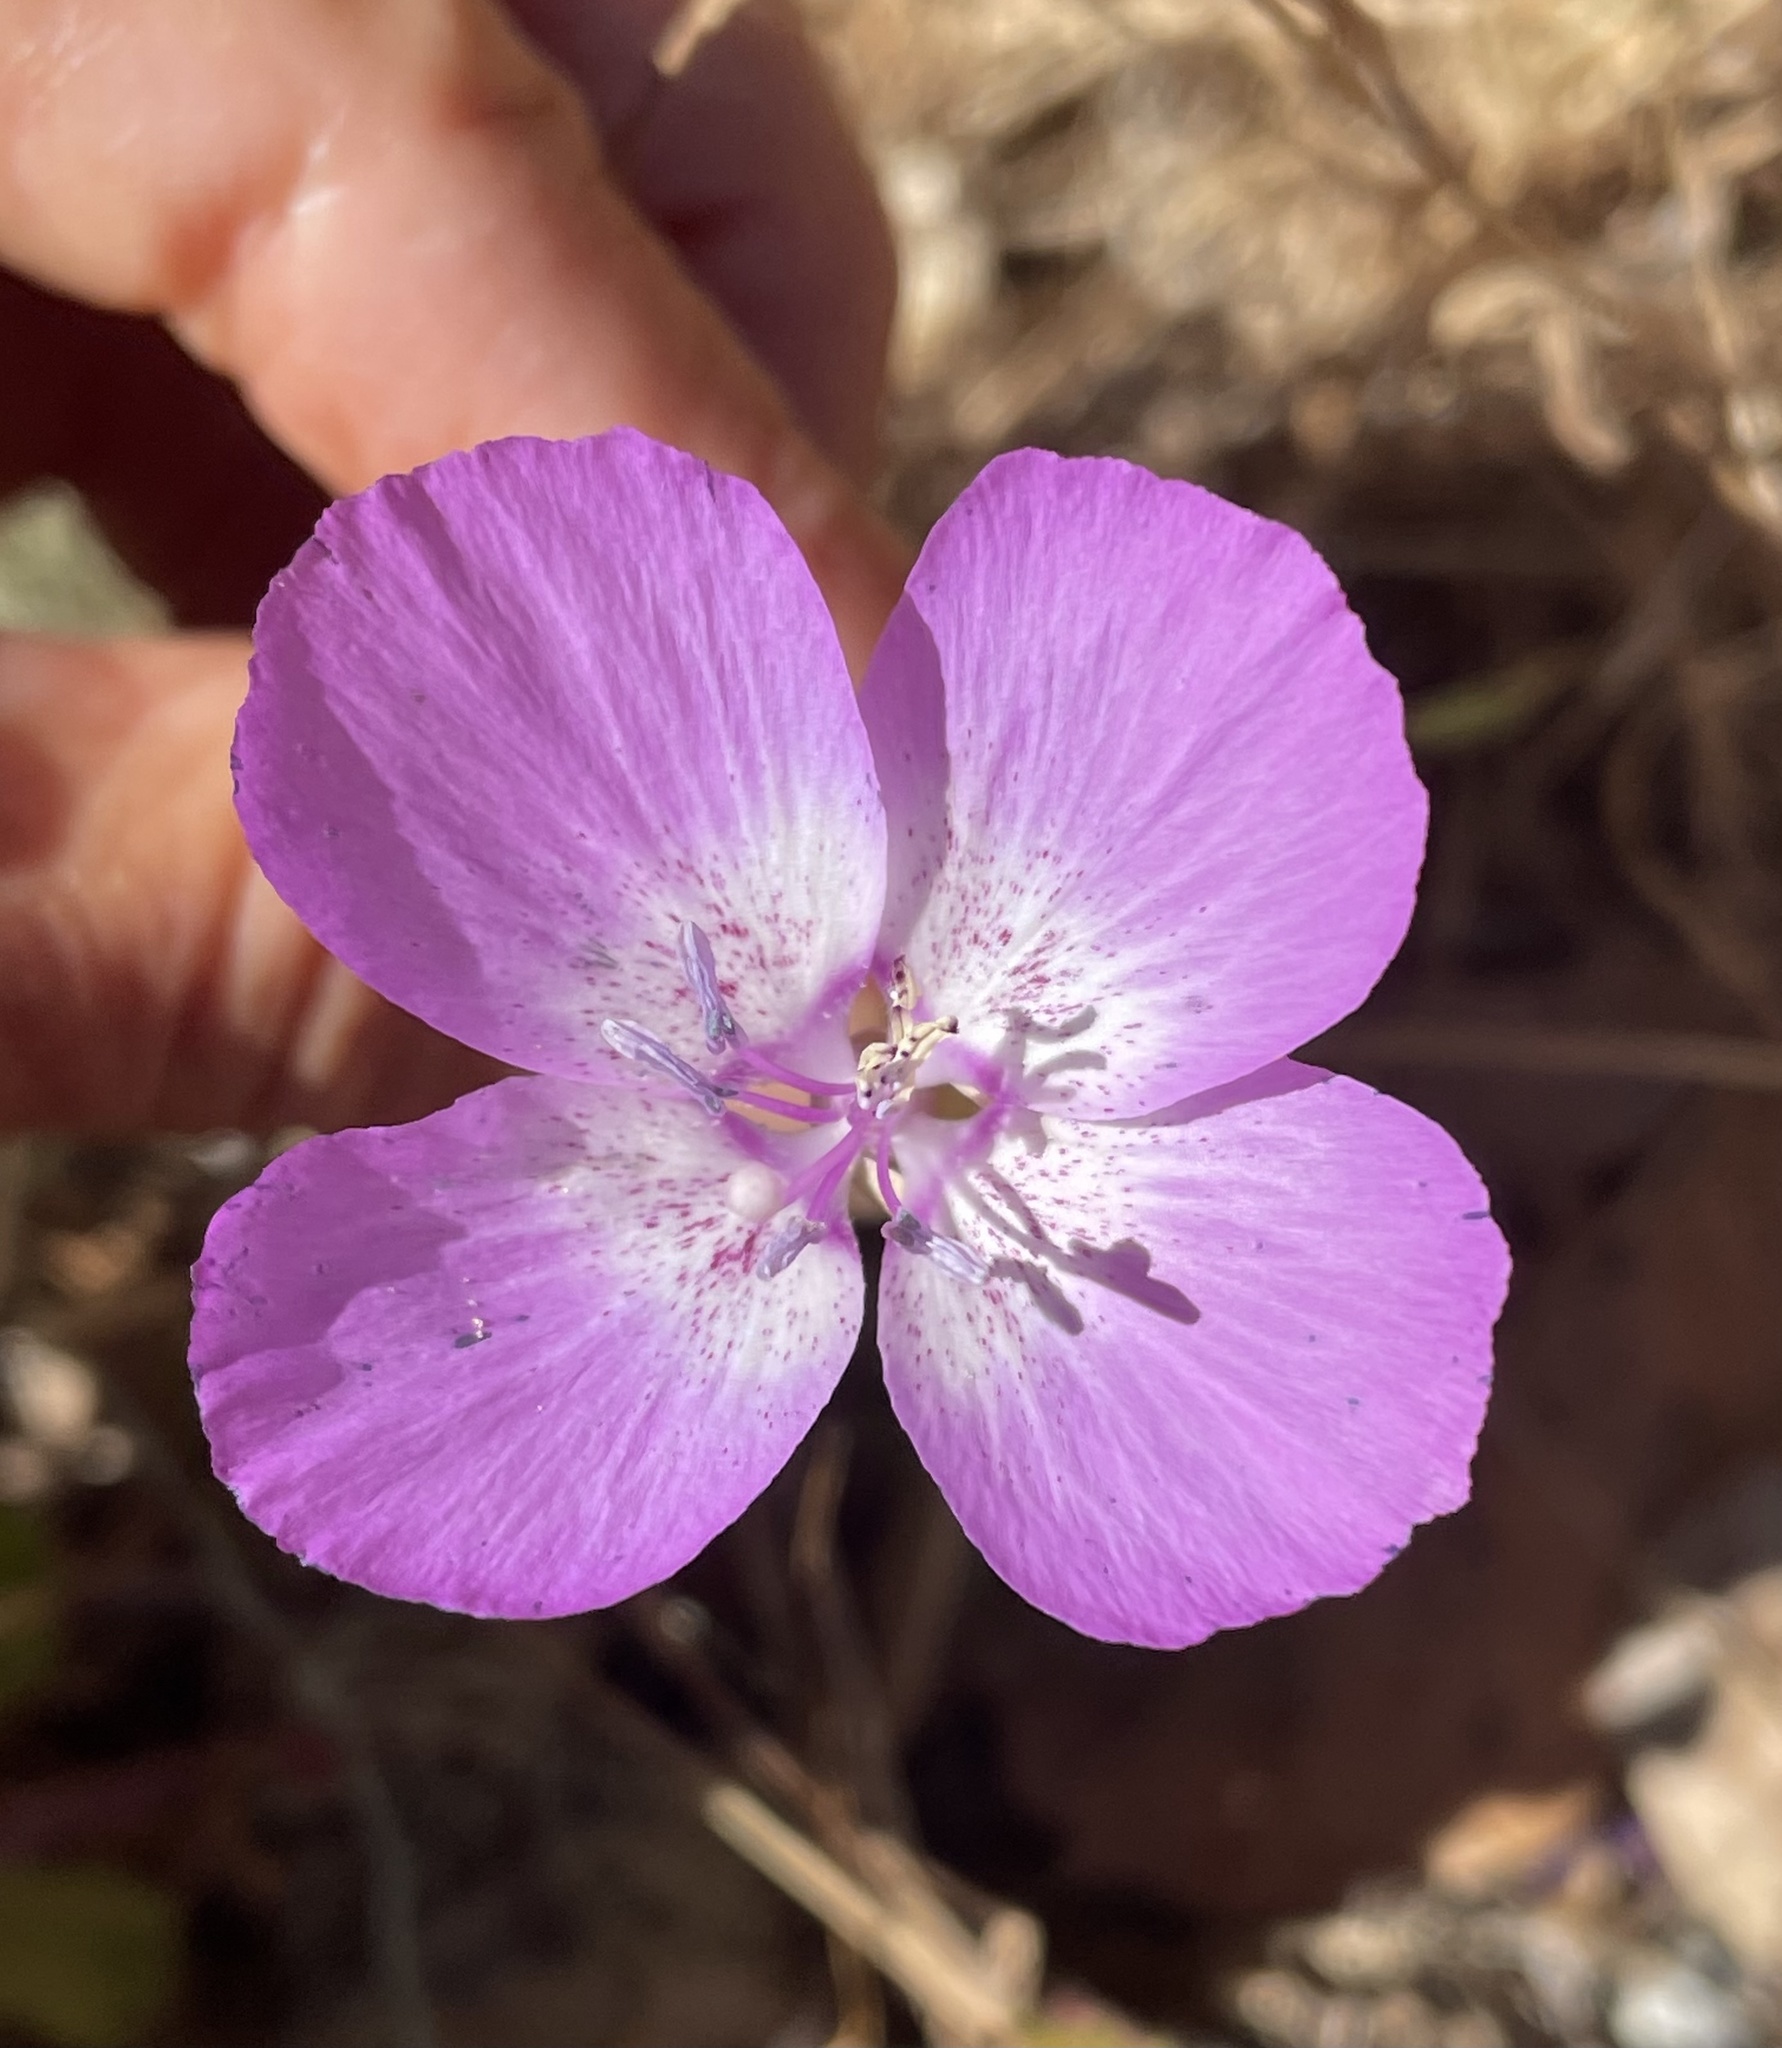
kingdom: Plantae
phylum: Tracheophyta
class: Magnoliopsida
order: Myrtales
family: Onagraceae
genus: Clarkia
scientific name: Clarkia lewisii
